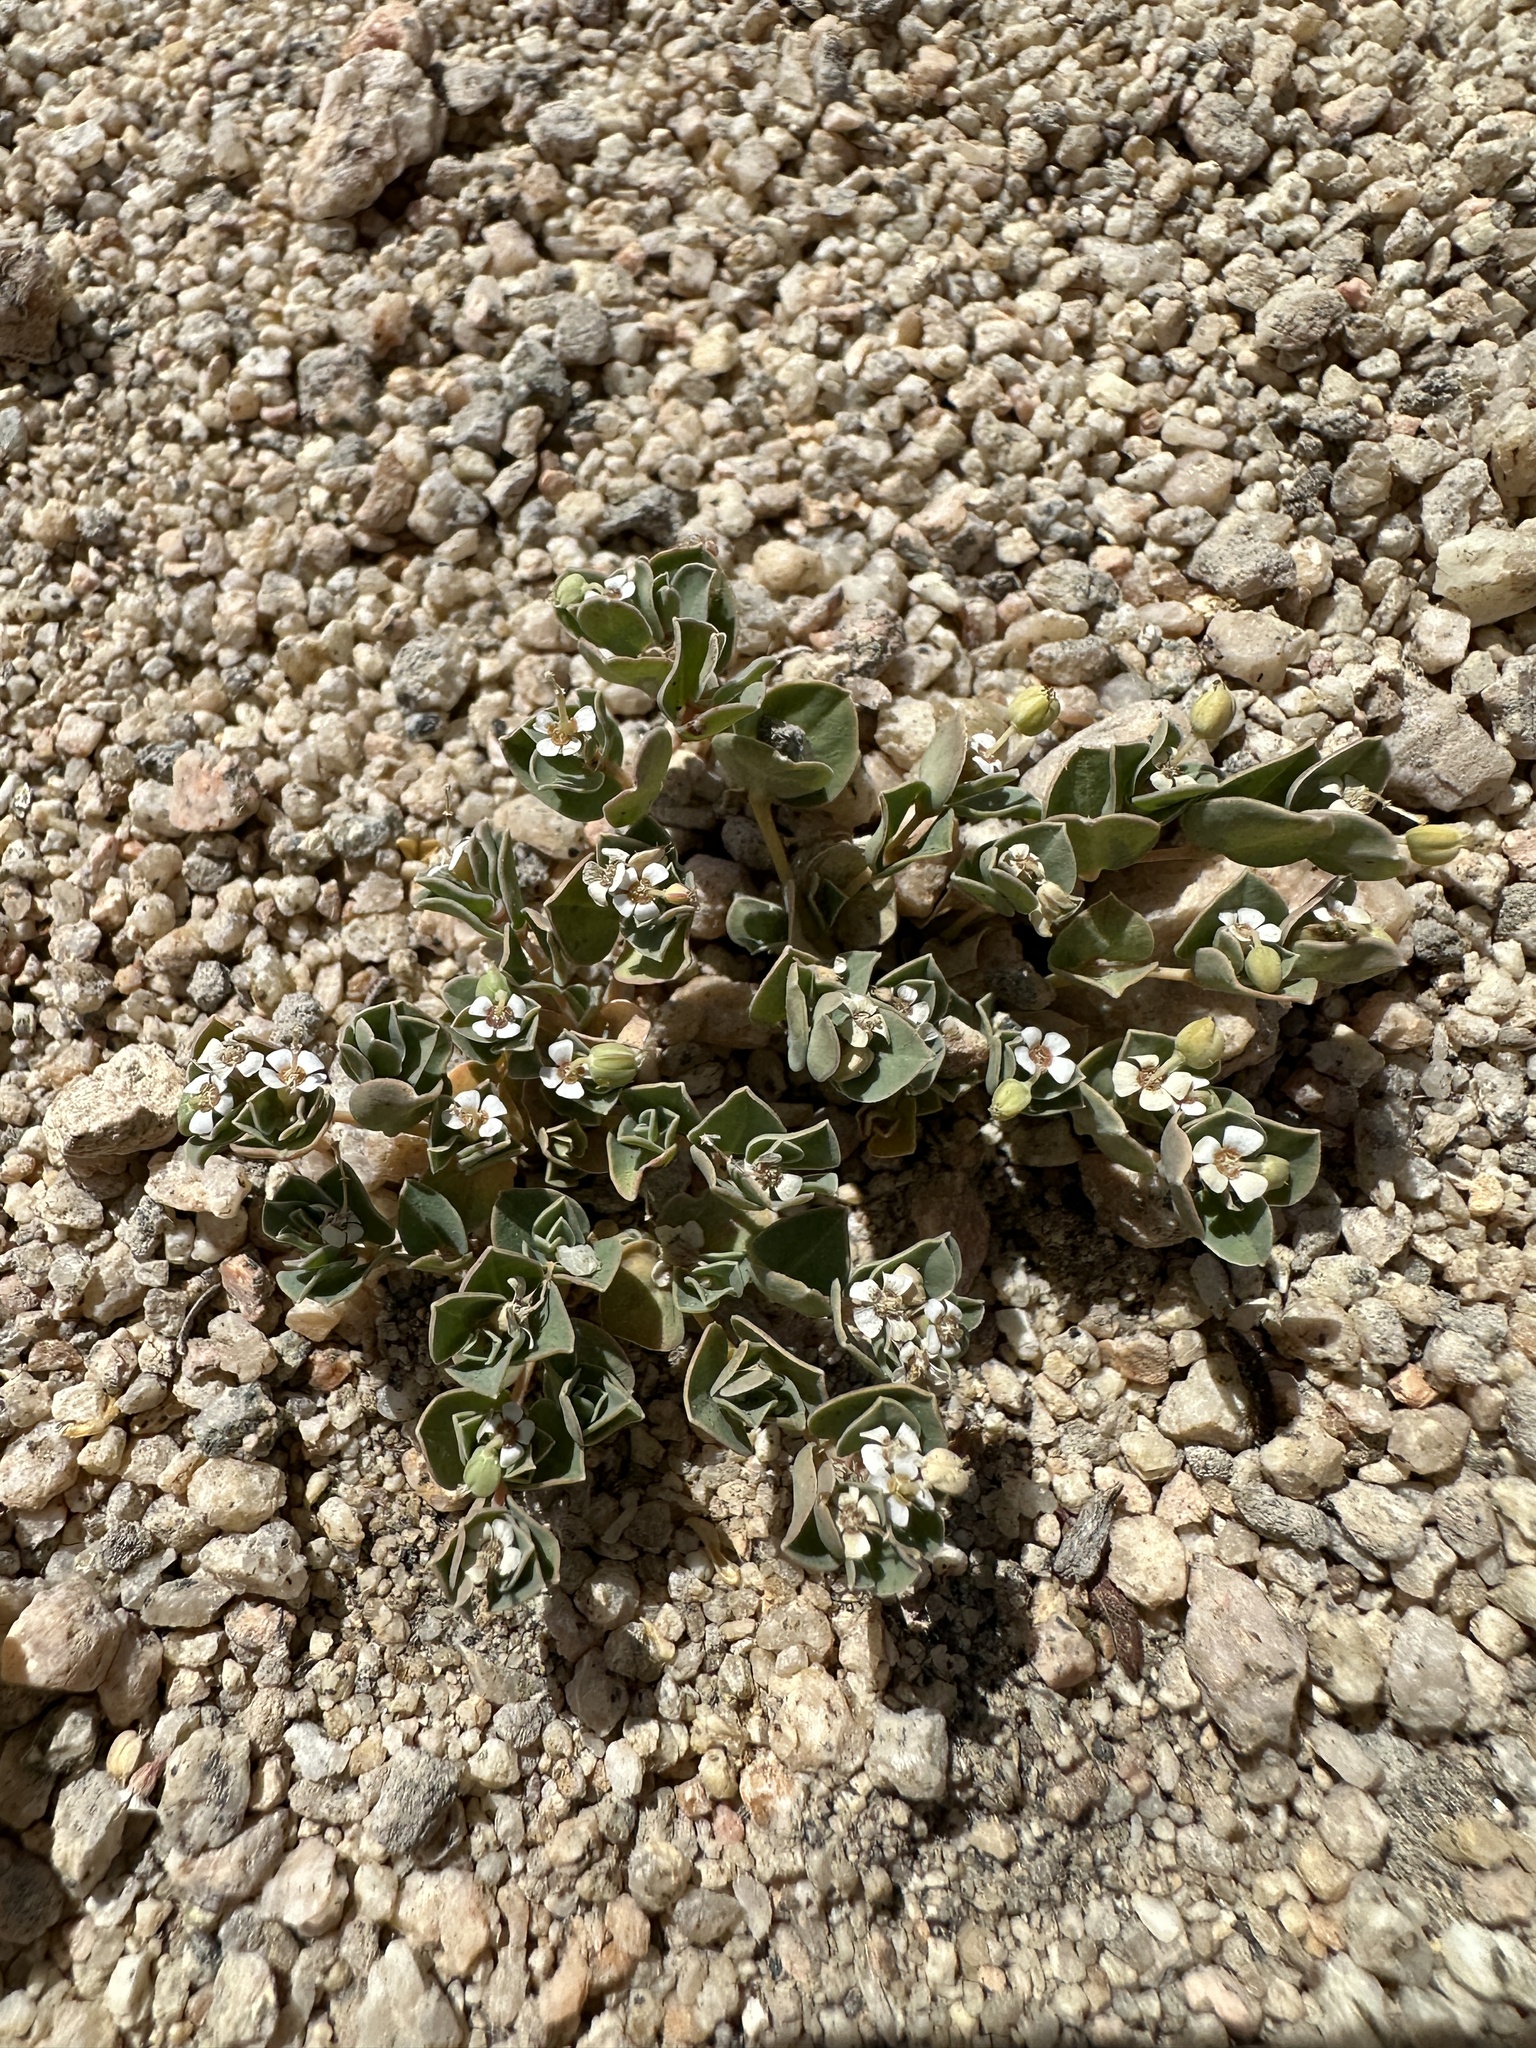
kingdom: Plantae
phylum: Tracheophyta
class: Magnoliopsida
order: Malpighiales
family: Euphorbiaceae
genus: Euphorbia
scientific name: Euphorbia albomarginata
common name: Whitemargin sandmat
